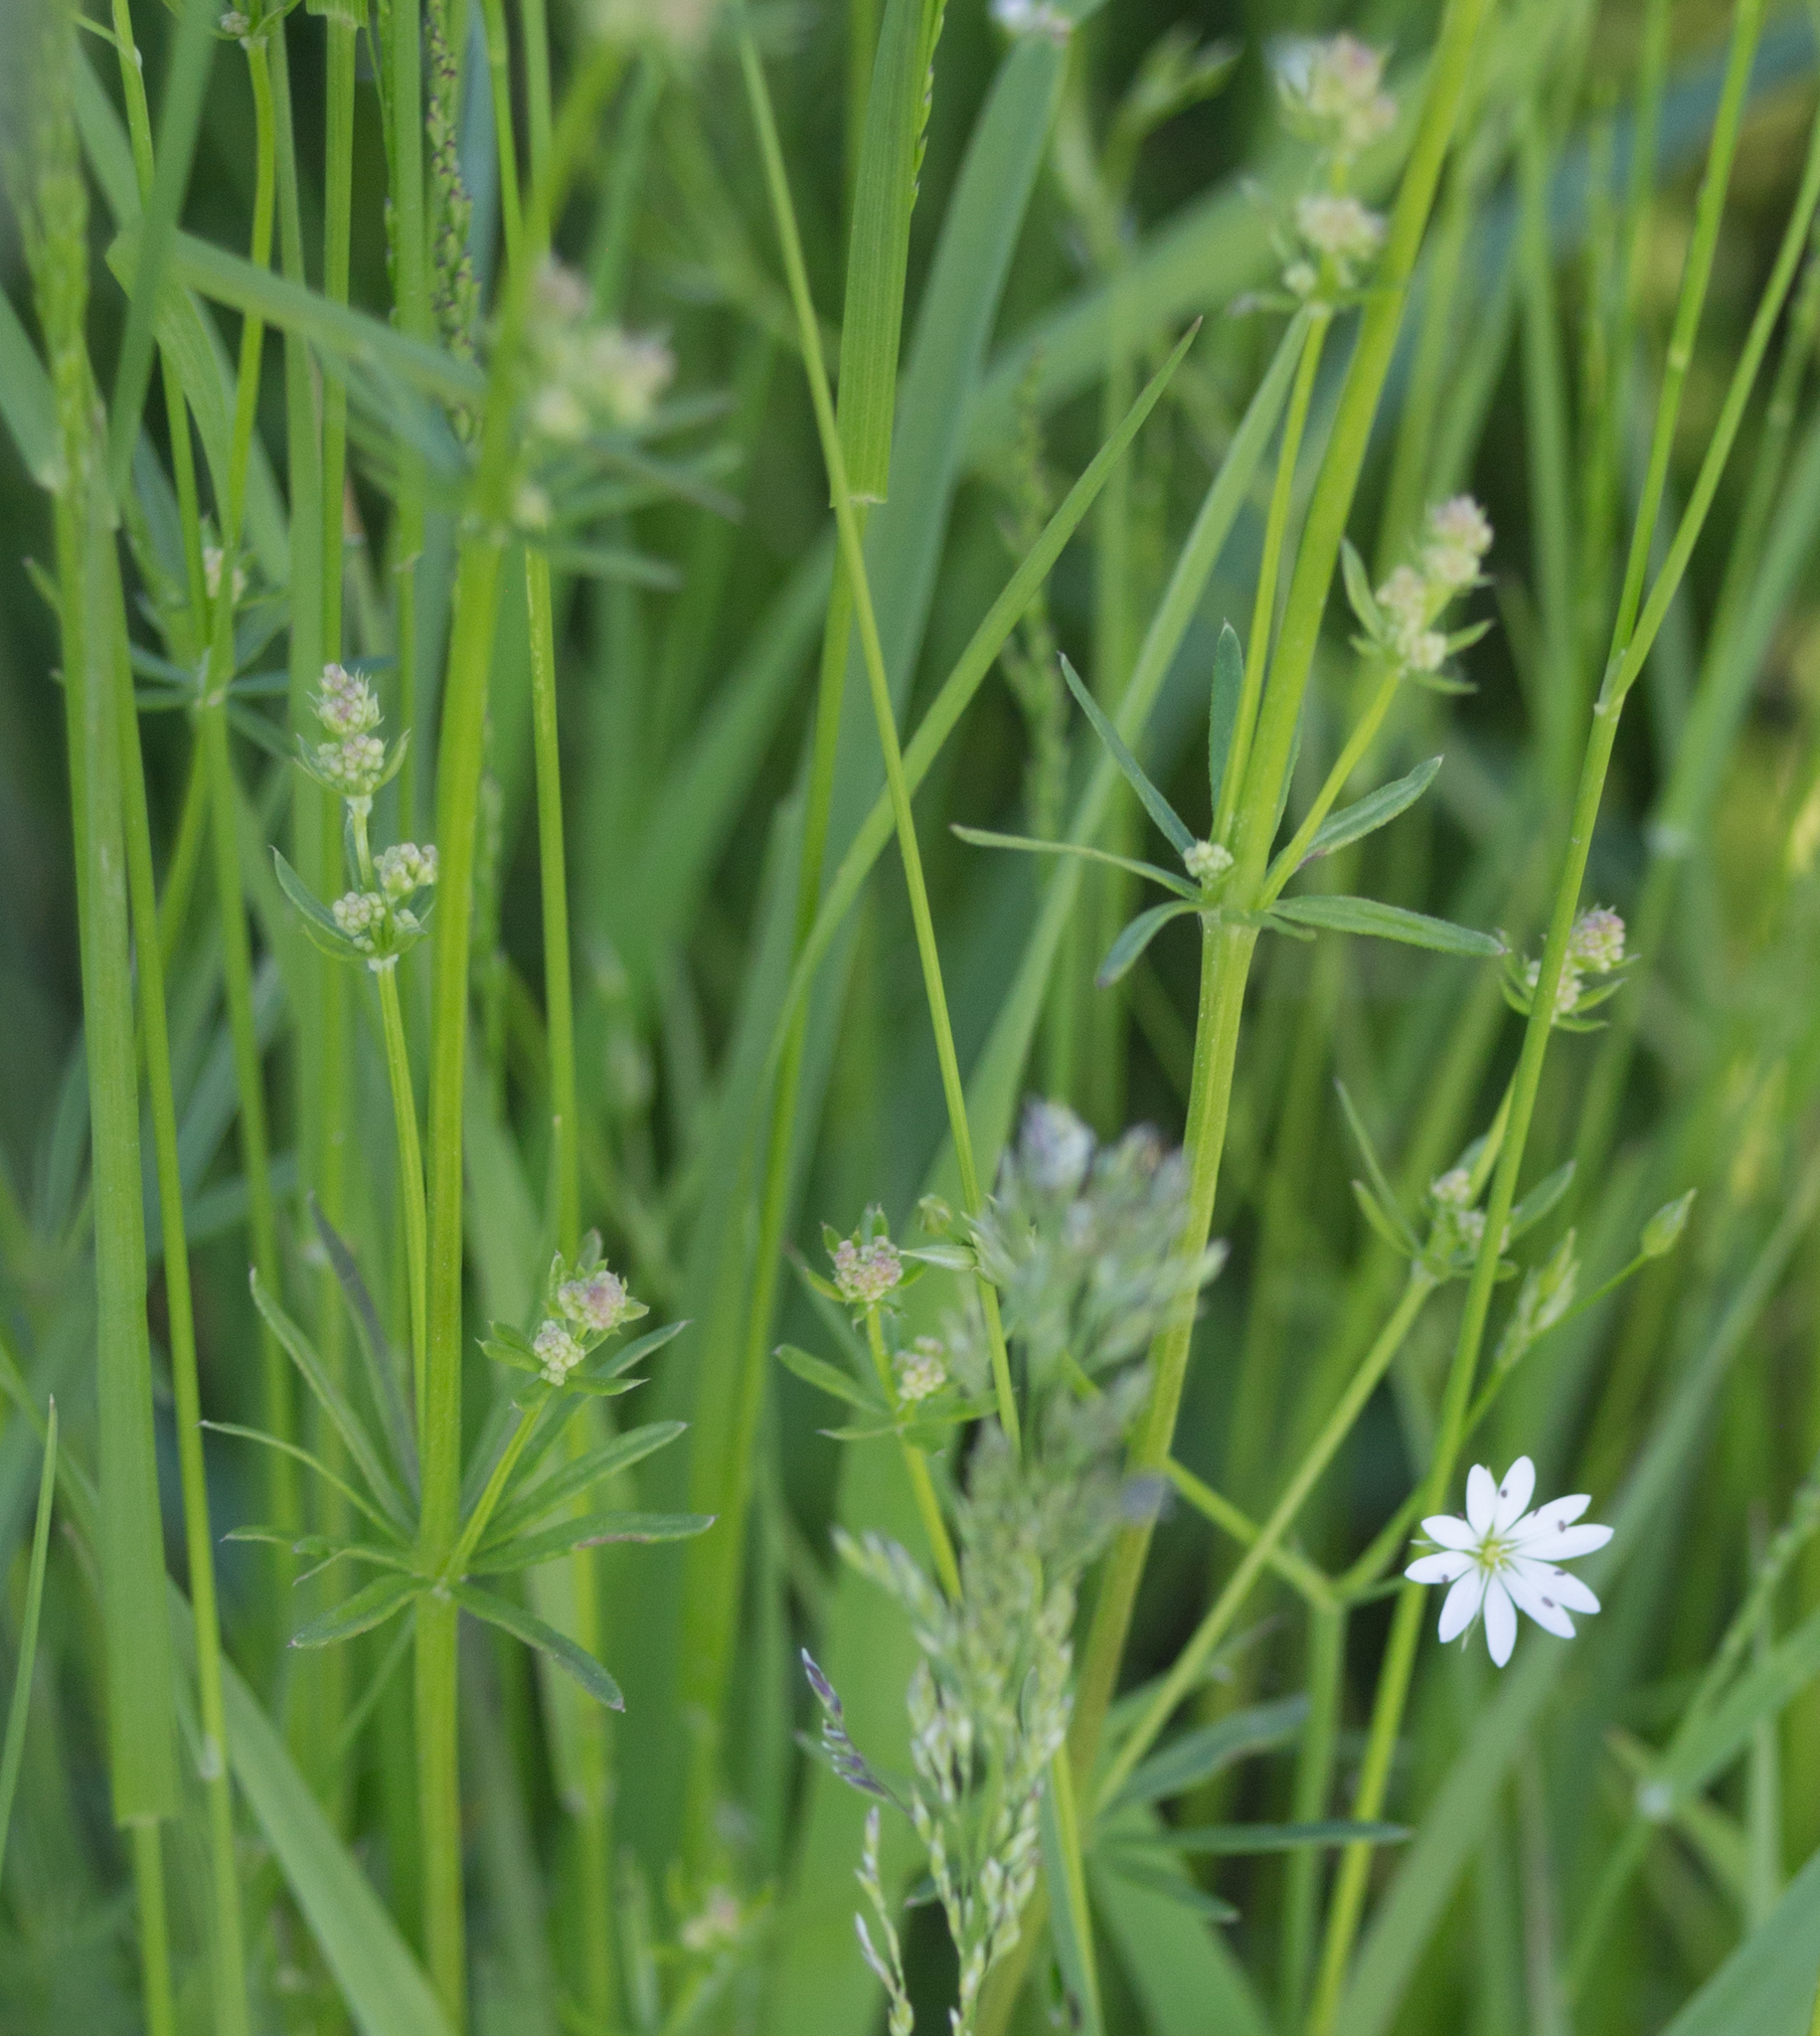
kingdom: Plantae
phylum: Tracheophyta
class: Magnoliopsida
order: Gentianales
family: Rubiaceae
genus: Galium
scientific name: Galium mollugo
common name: Hedge bedstraw
